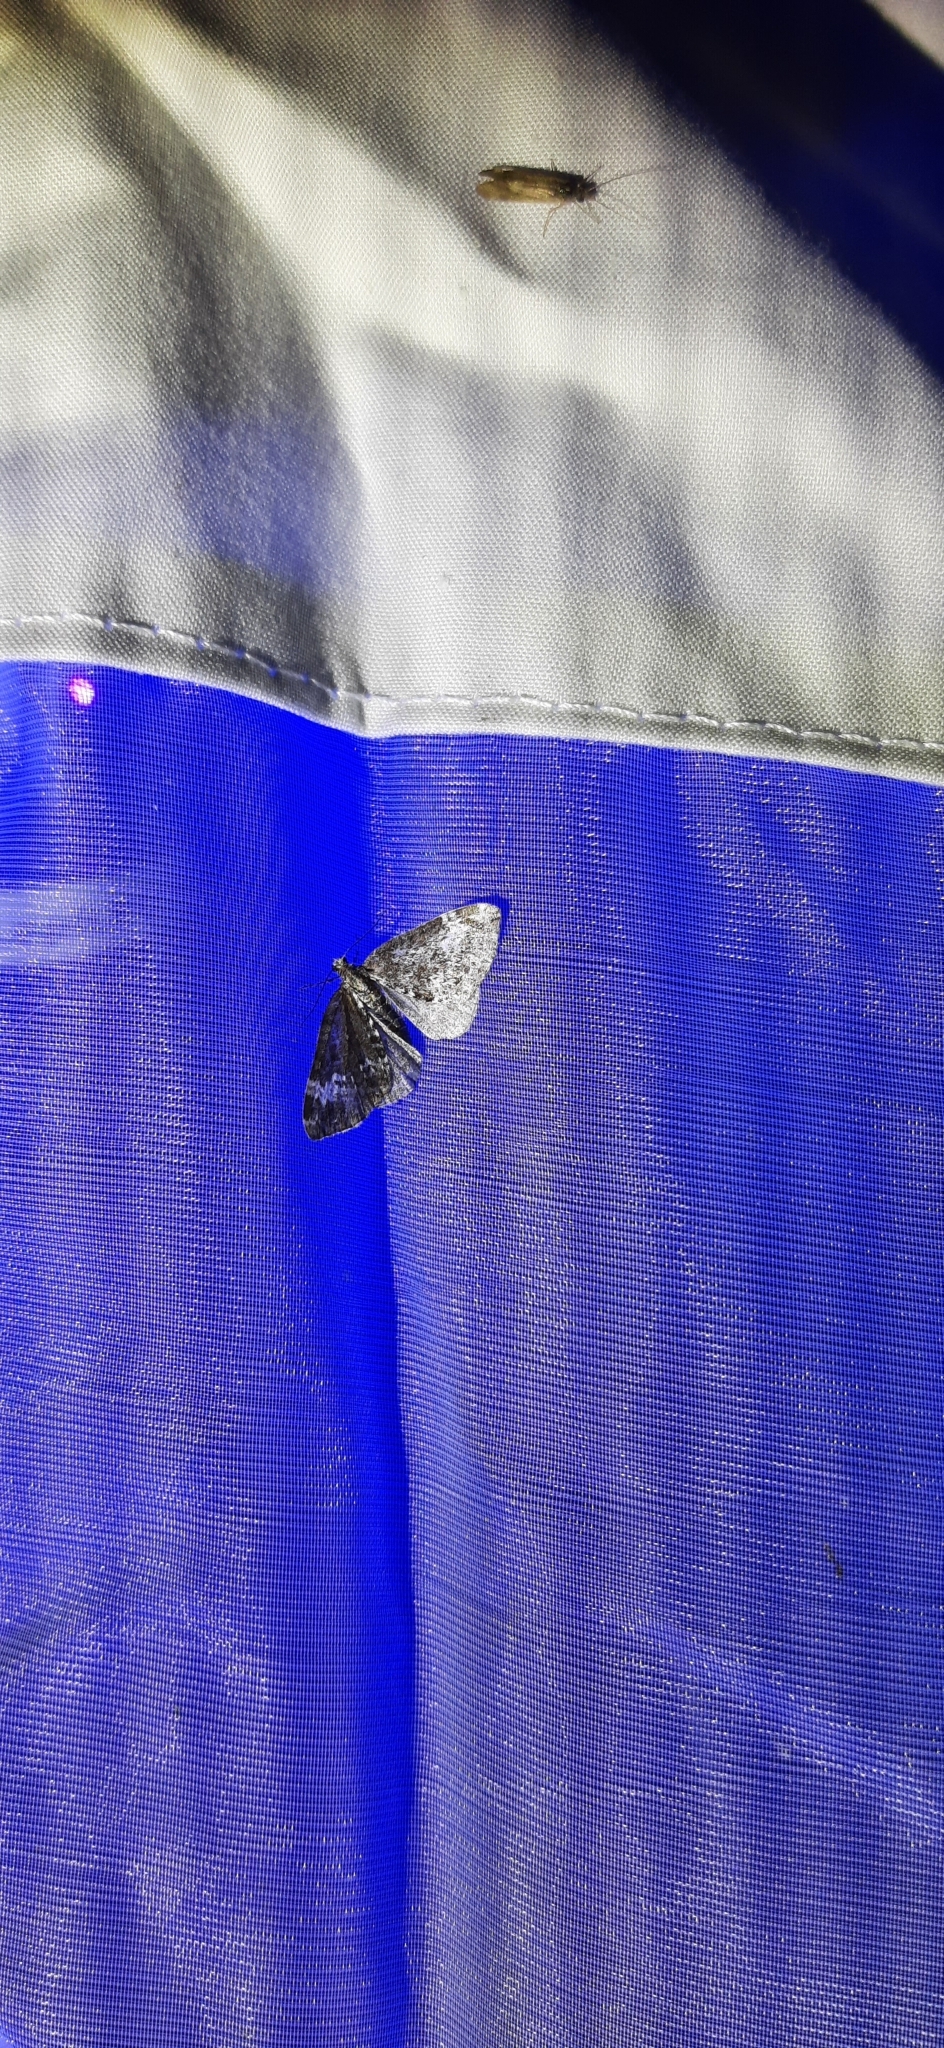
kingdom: Animalia
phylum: Arthropoda
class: Insecta
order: Lepidoptera
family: Geometridae
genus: Perizoma
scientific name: Perizoma alchemillata
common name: Small rivulet
